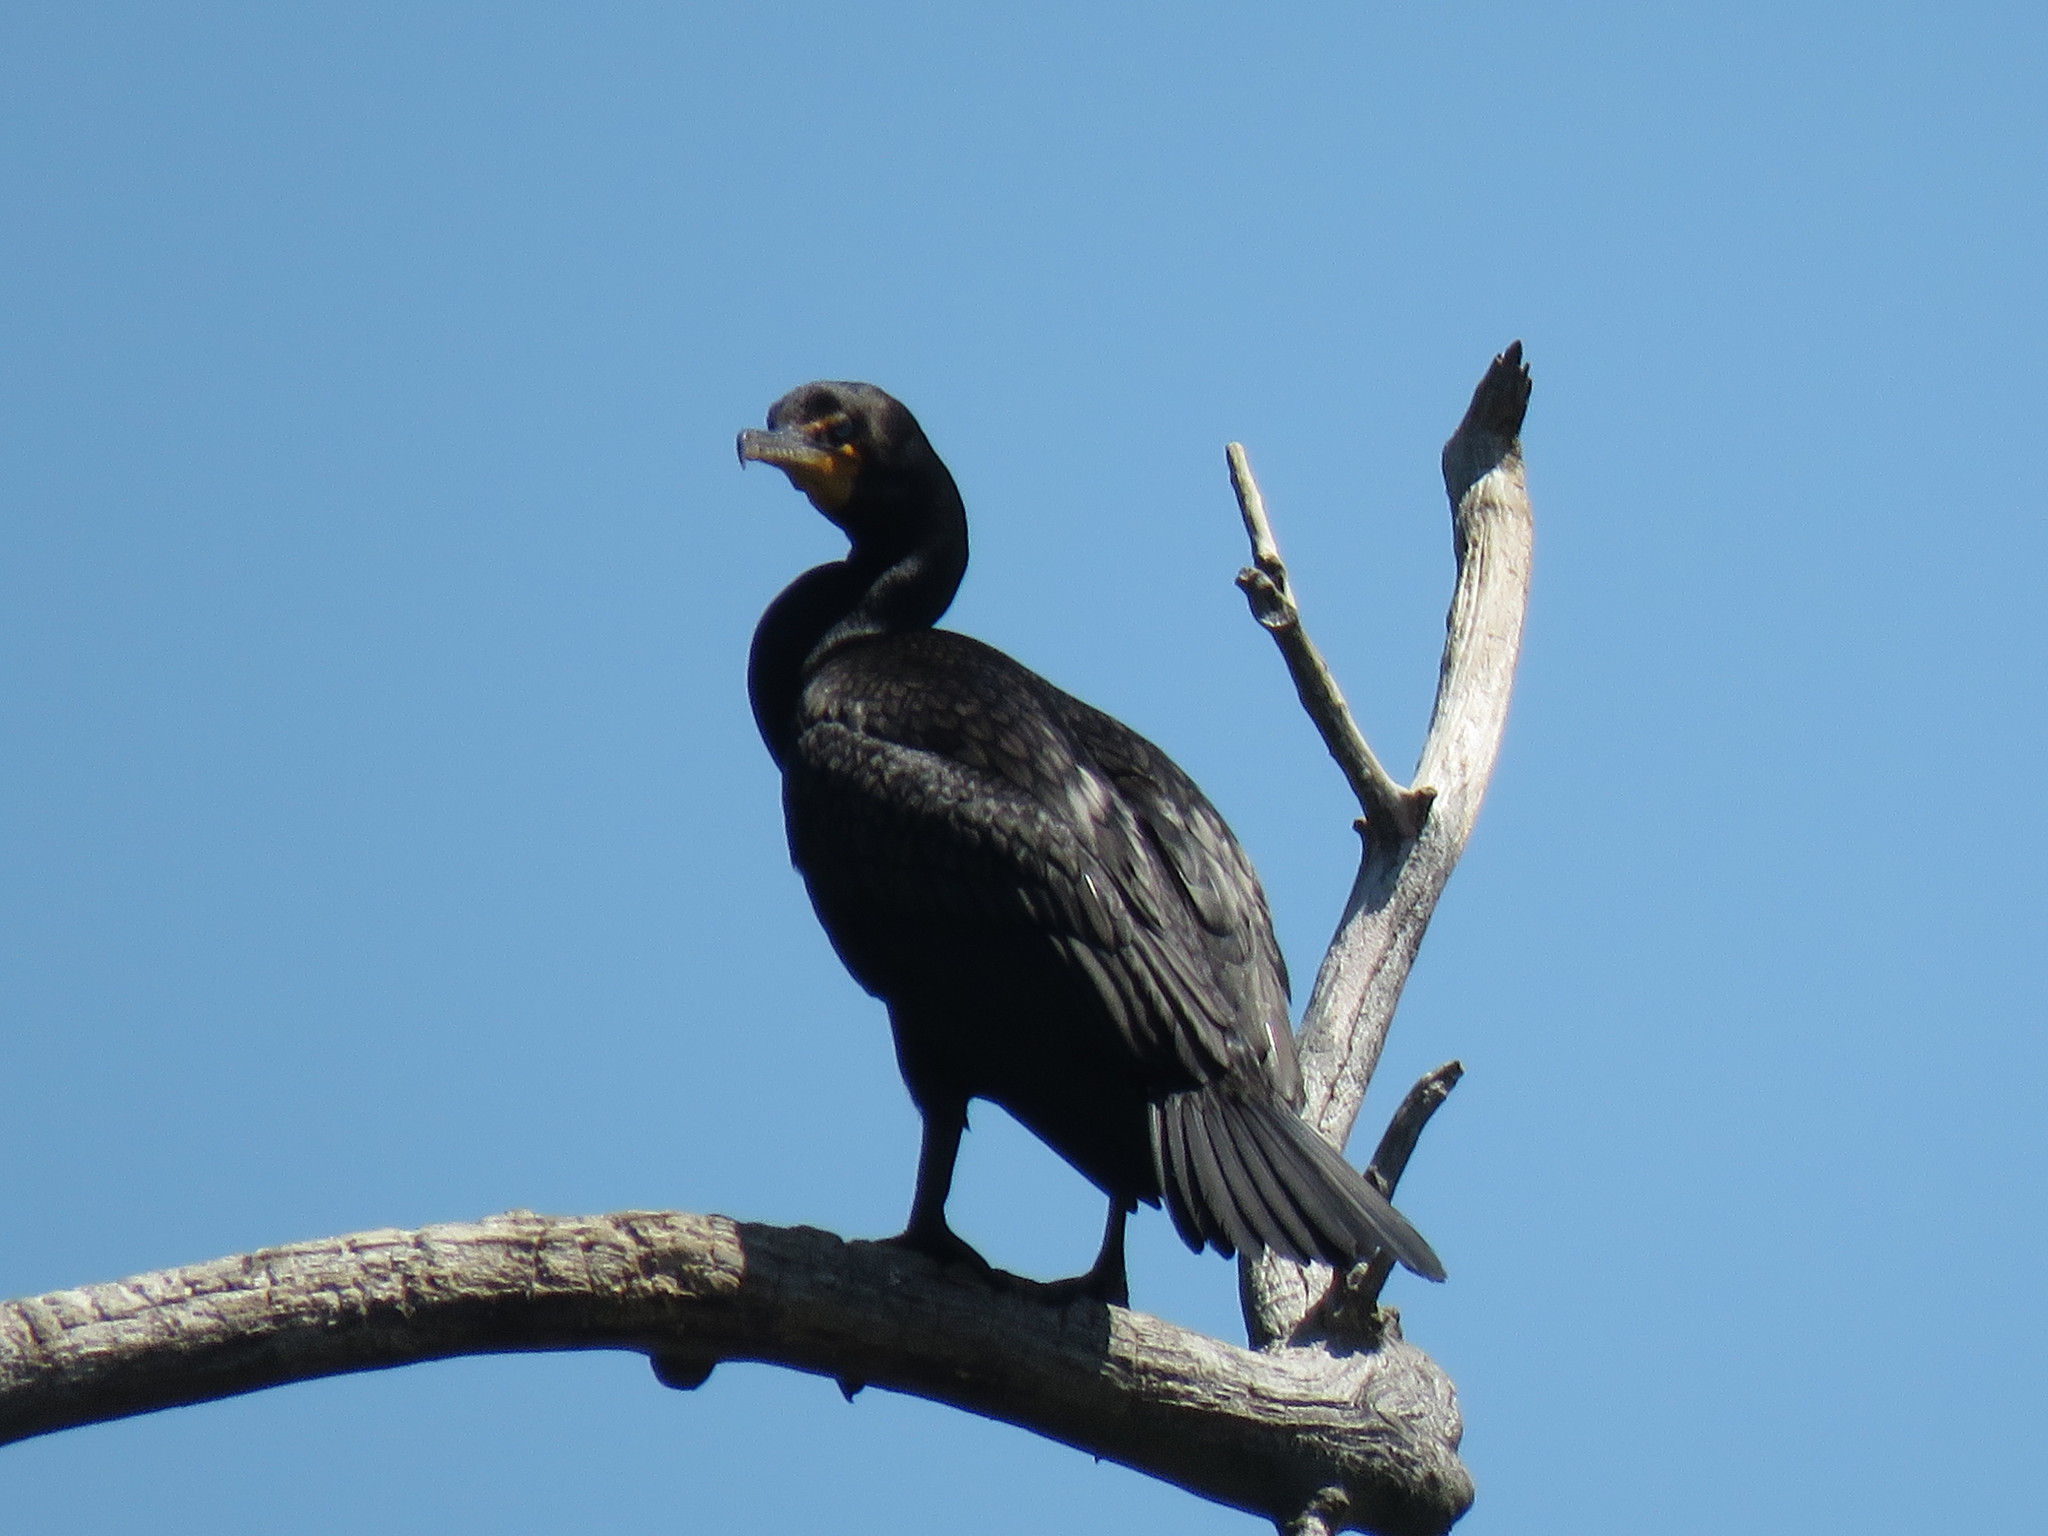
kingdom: Animalia
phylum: Chordata
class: Aves
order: Suliformes
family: Phalacrocoracidae
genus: Phalacrocorax
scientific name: Phalacrocorax auritus
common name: Double-crested cormorant
